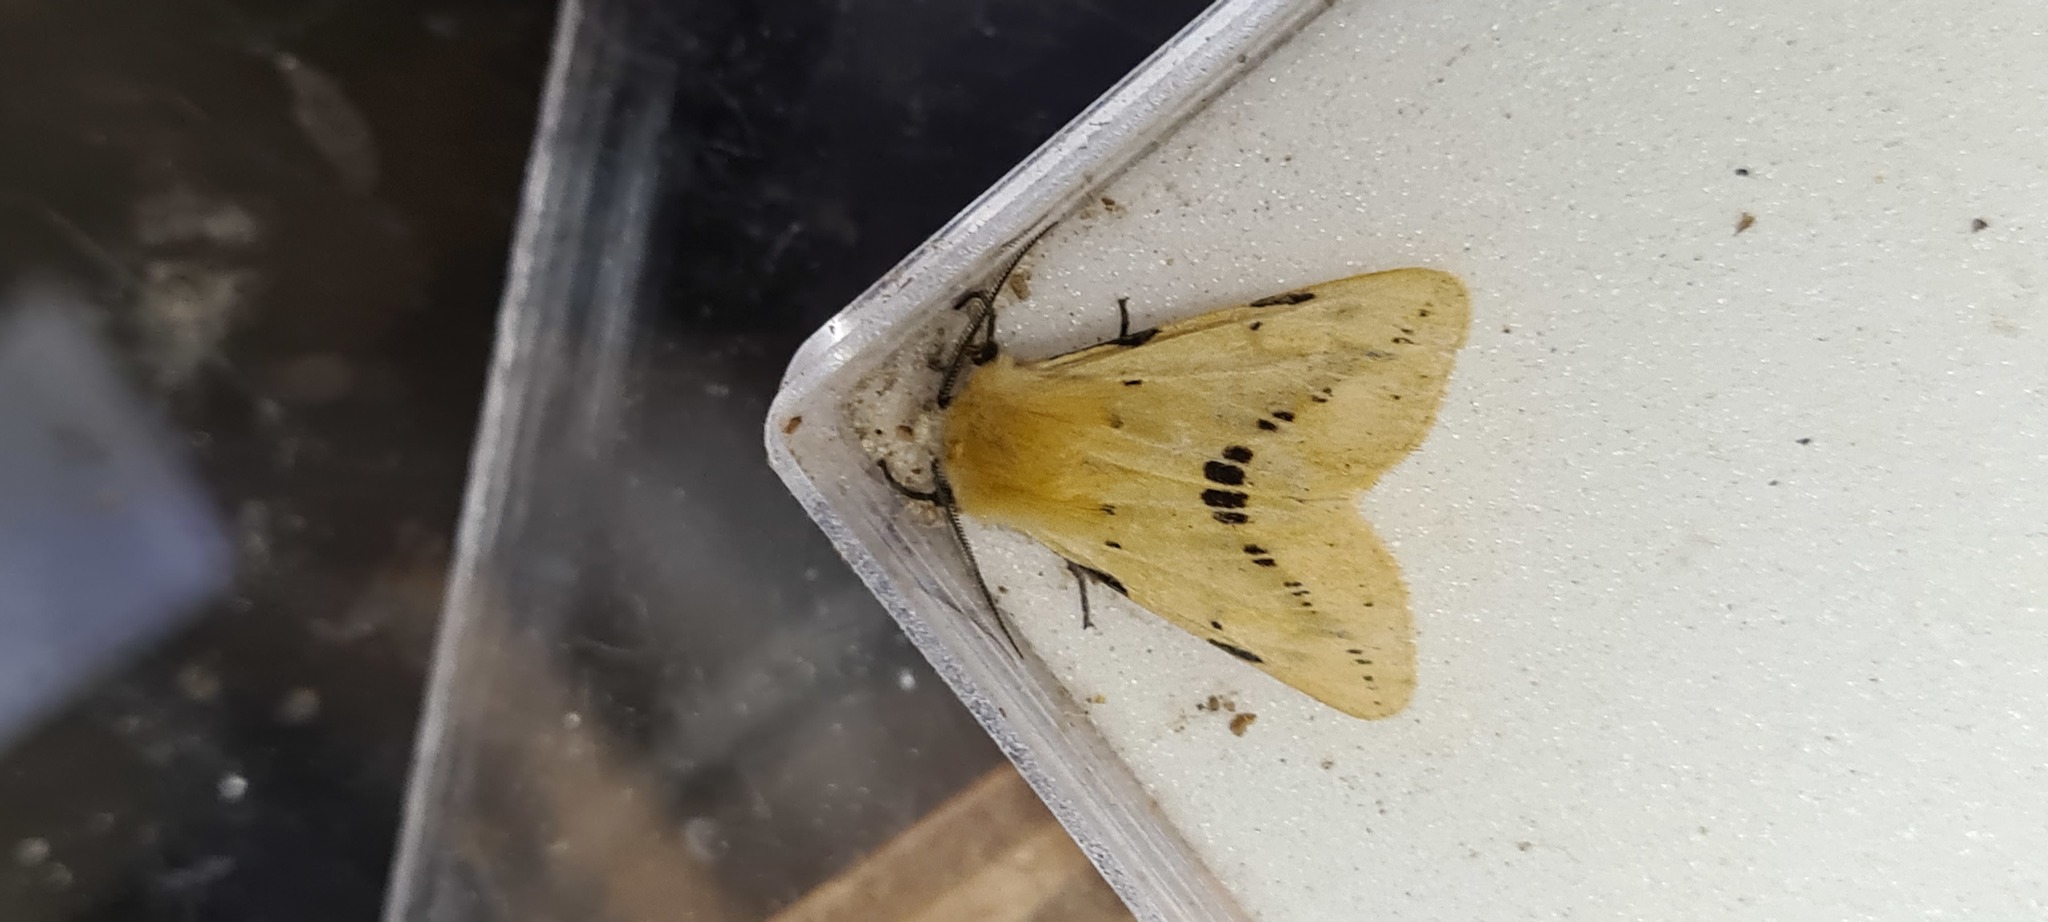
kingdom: Animalia
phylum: Arthropoda
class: Insecta
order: Lepidoptera
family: Erebidae
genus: Spilarctia
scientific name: Spilarctia lutea
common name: Buff ermine
